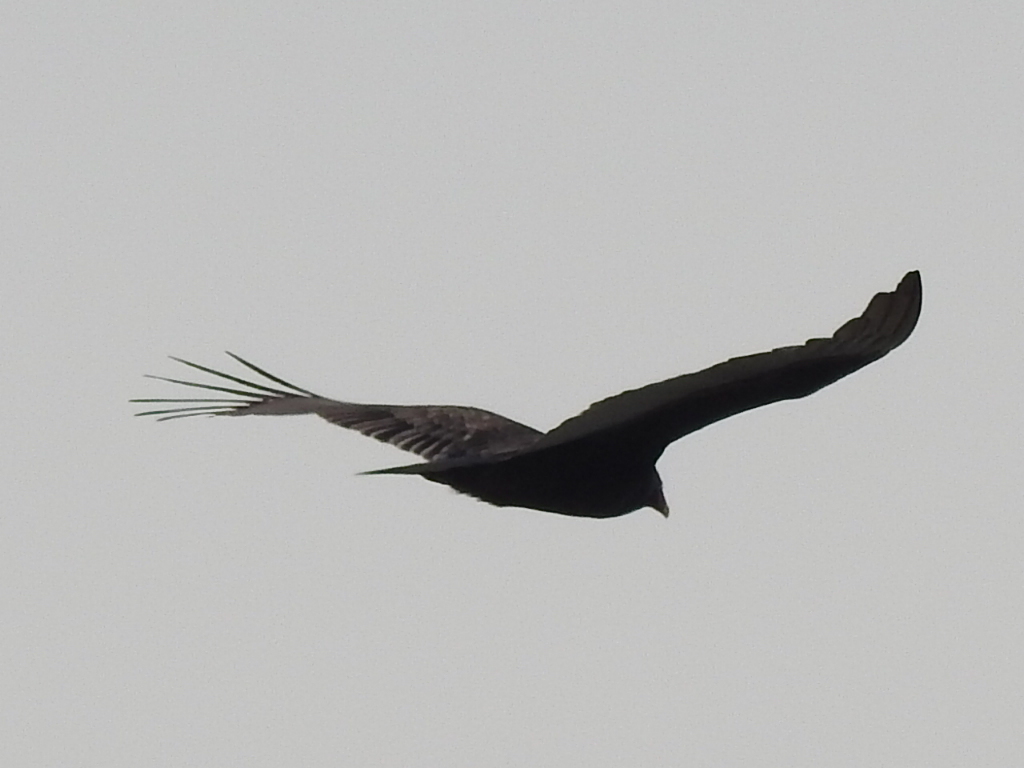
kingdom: Animalia
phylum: Chordata
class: Aves
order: Accipitriformes
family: Cathartidae
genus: Cathartes
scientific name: Cathartes aura
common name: Turkey vulture
